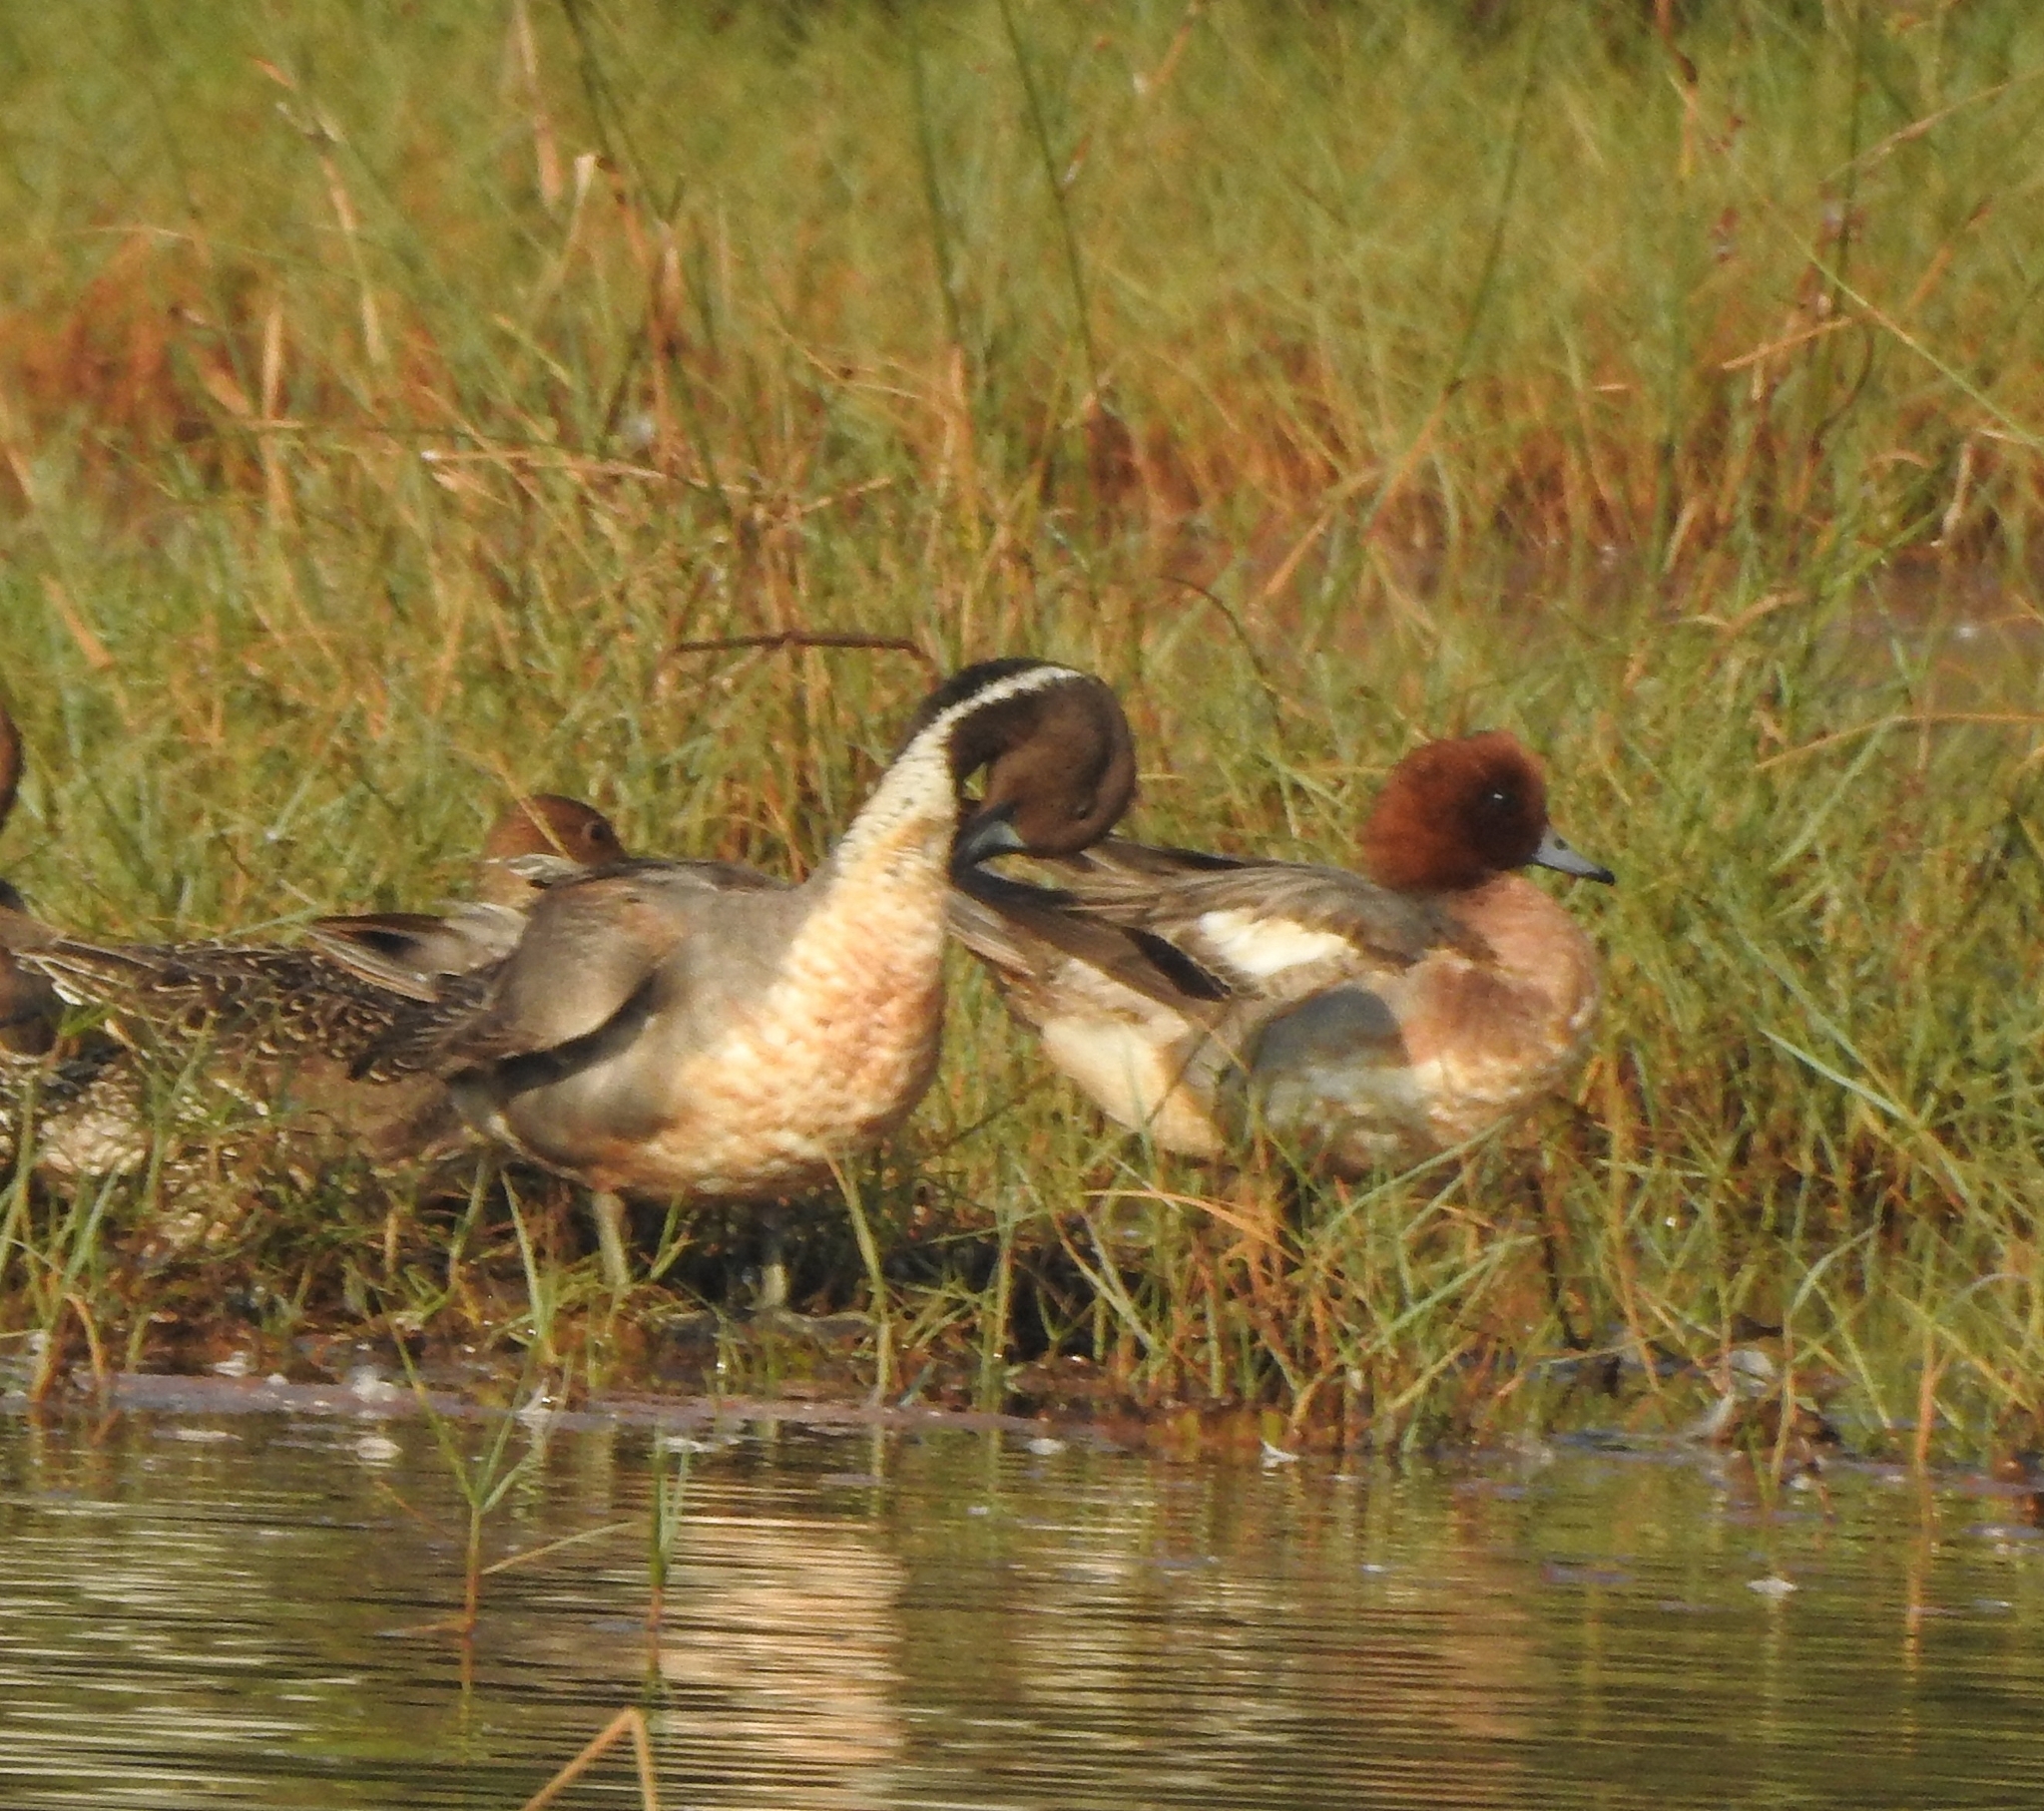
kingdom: Animalia
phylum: Chordata
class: Aves
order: Anseriformes
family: Anatidae
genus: Mareca
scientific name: Mareca penelope
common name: Eurasian wigeon
